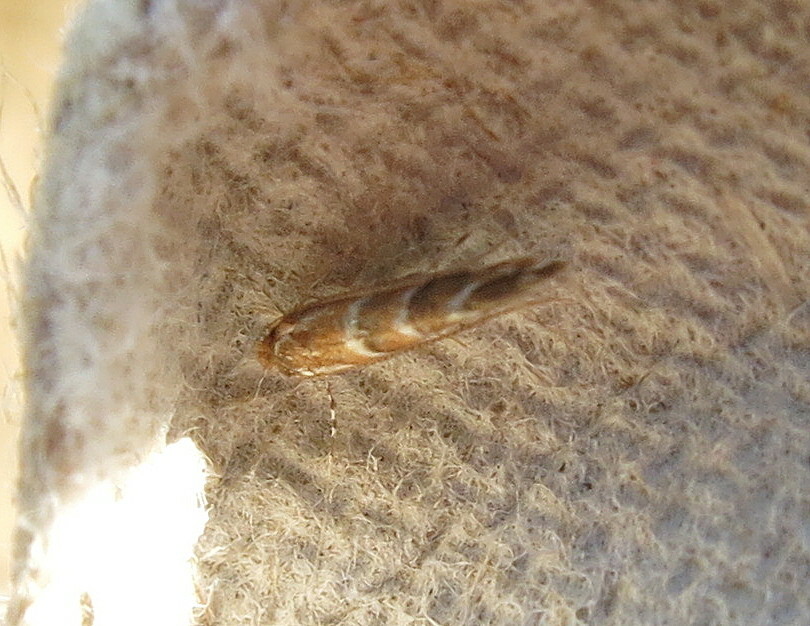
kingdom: Animalia
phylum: Arthropoda
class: Insecta
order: Lepidoptera
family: Gracillariidae
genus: Cameraria
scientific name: Cameraria ohridella
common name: Horse-chestnut leaf-miner
